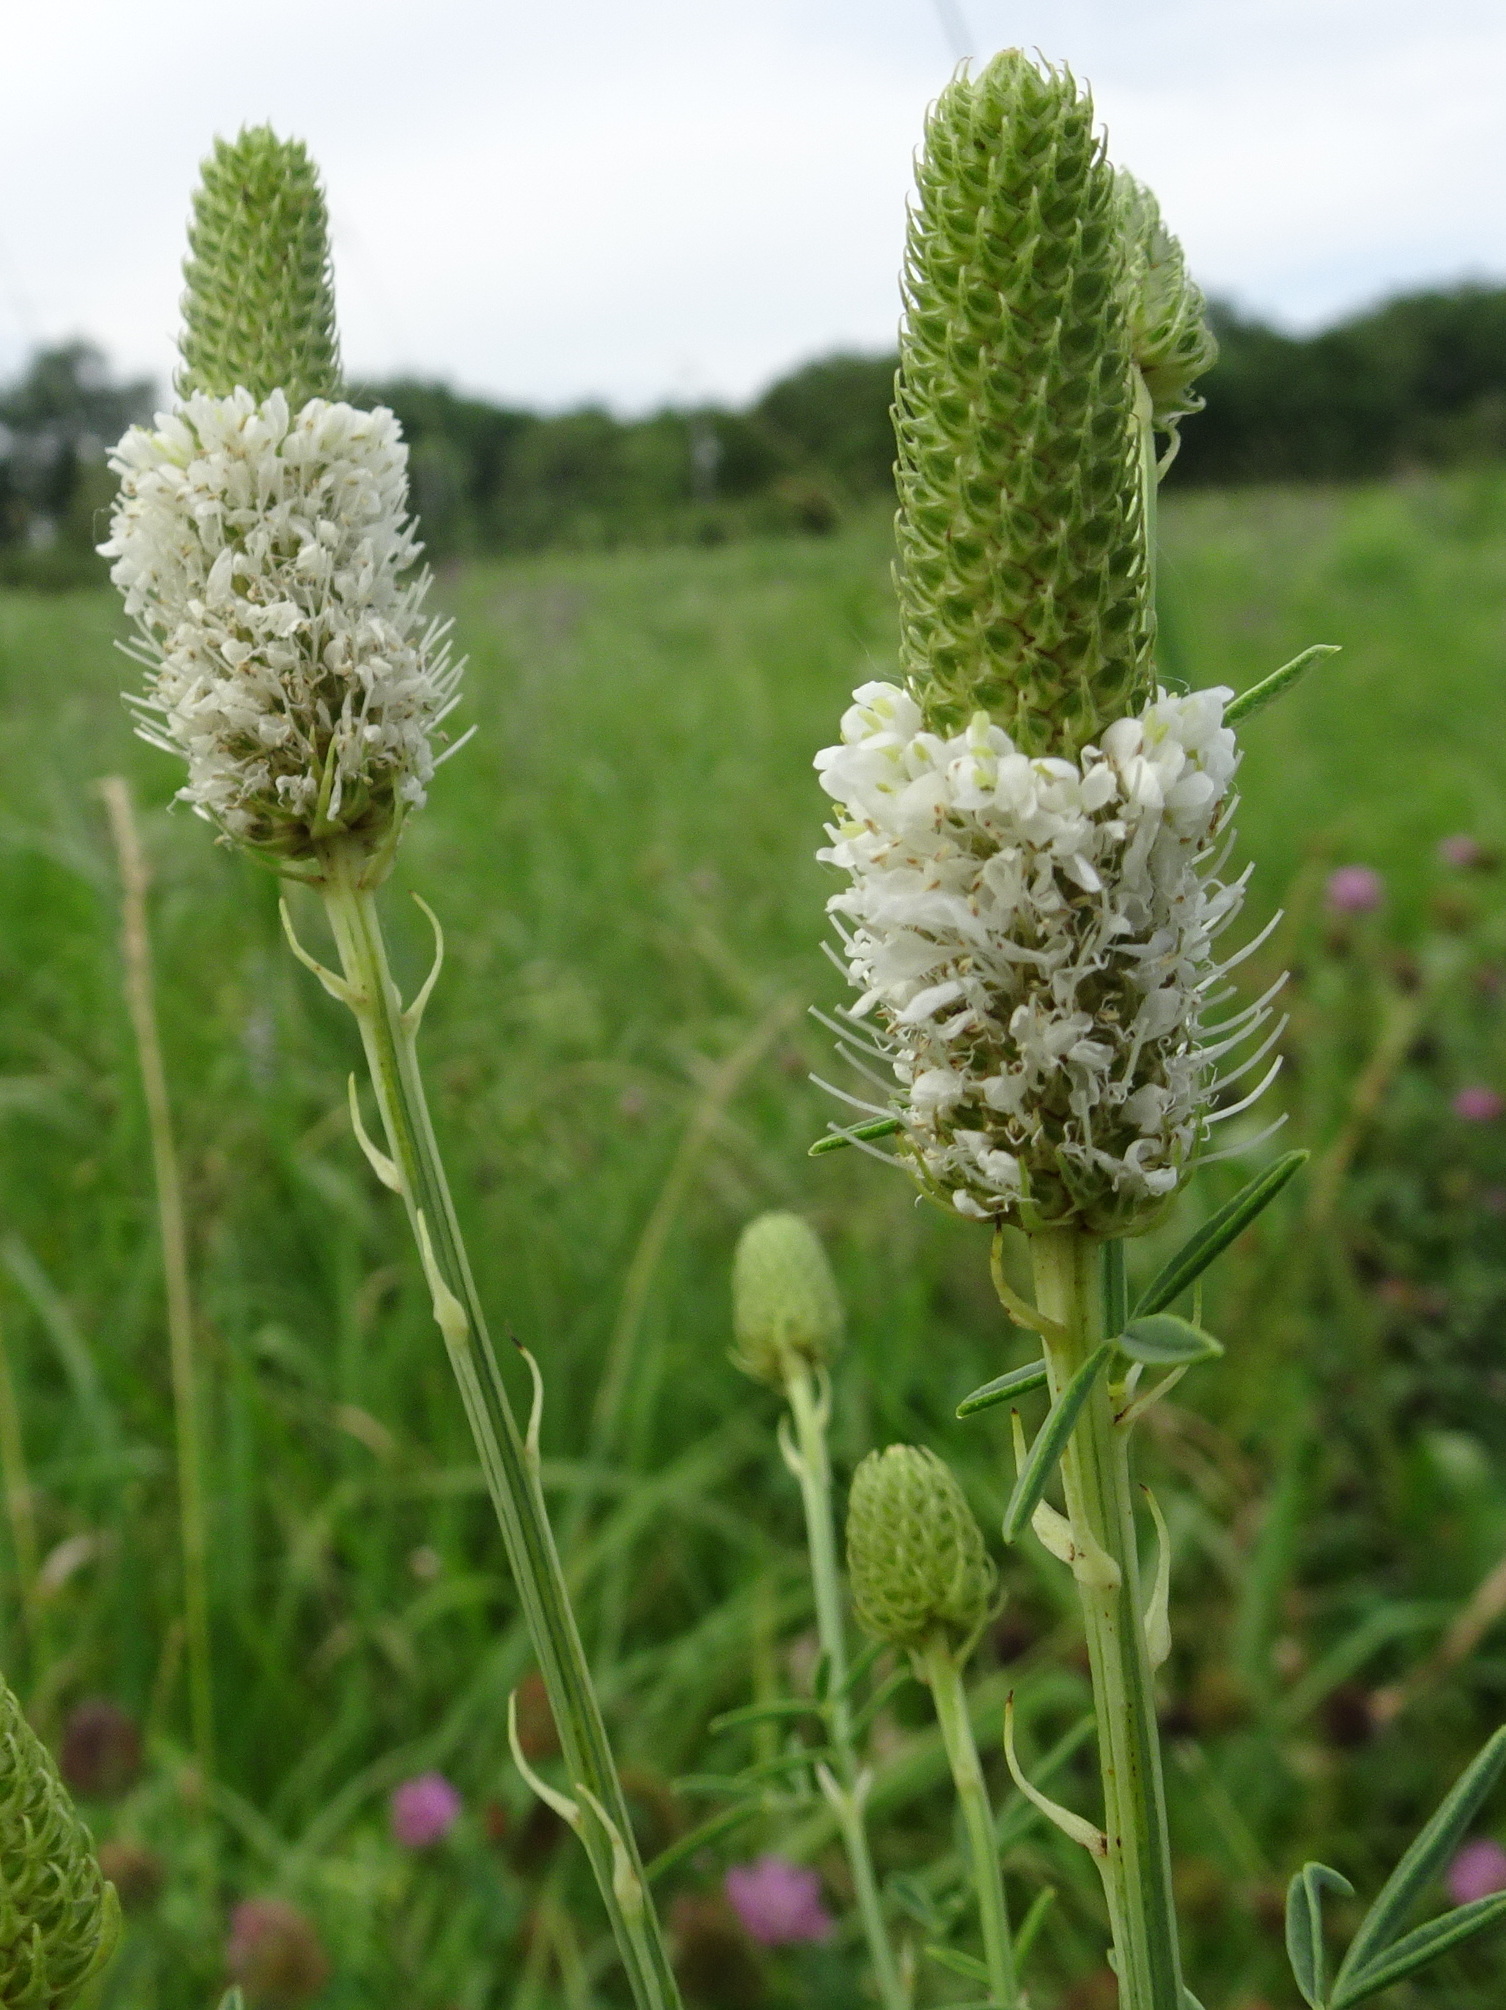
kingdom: Plantae
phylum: Tracheophyta
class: Magnoliopsida
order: Fabales
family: Fabaceae
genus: Dalea
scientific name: Dalea candida
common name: White prairie-clover
